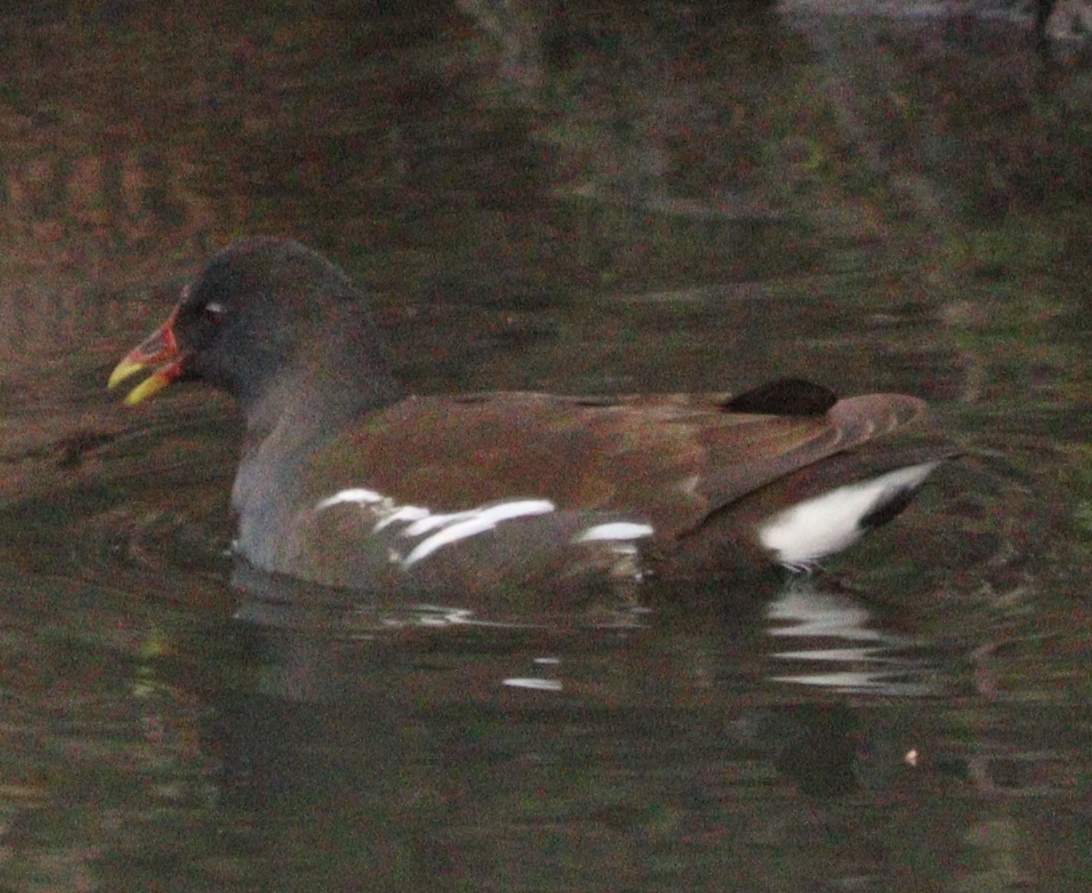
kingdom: Animalia
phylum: Chordata
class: Aves
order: Gruiformes
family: Rallidae
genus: Gallinula
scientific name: Gallinula chloropus
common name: Common moorhen
